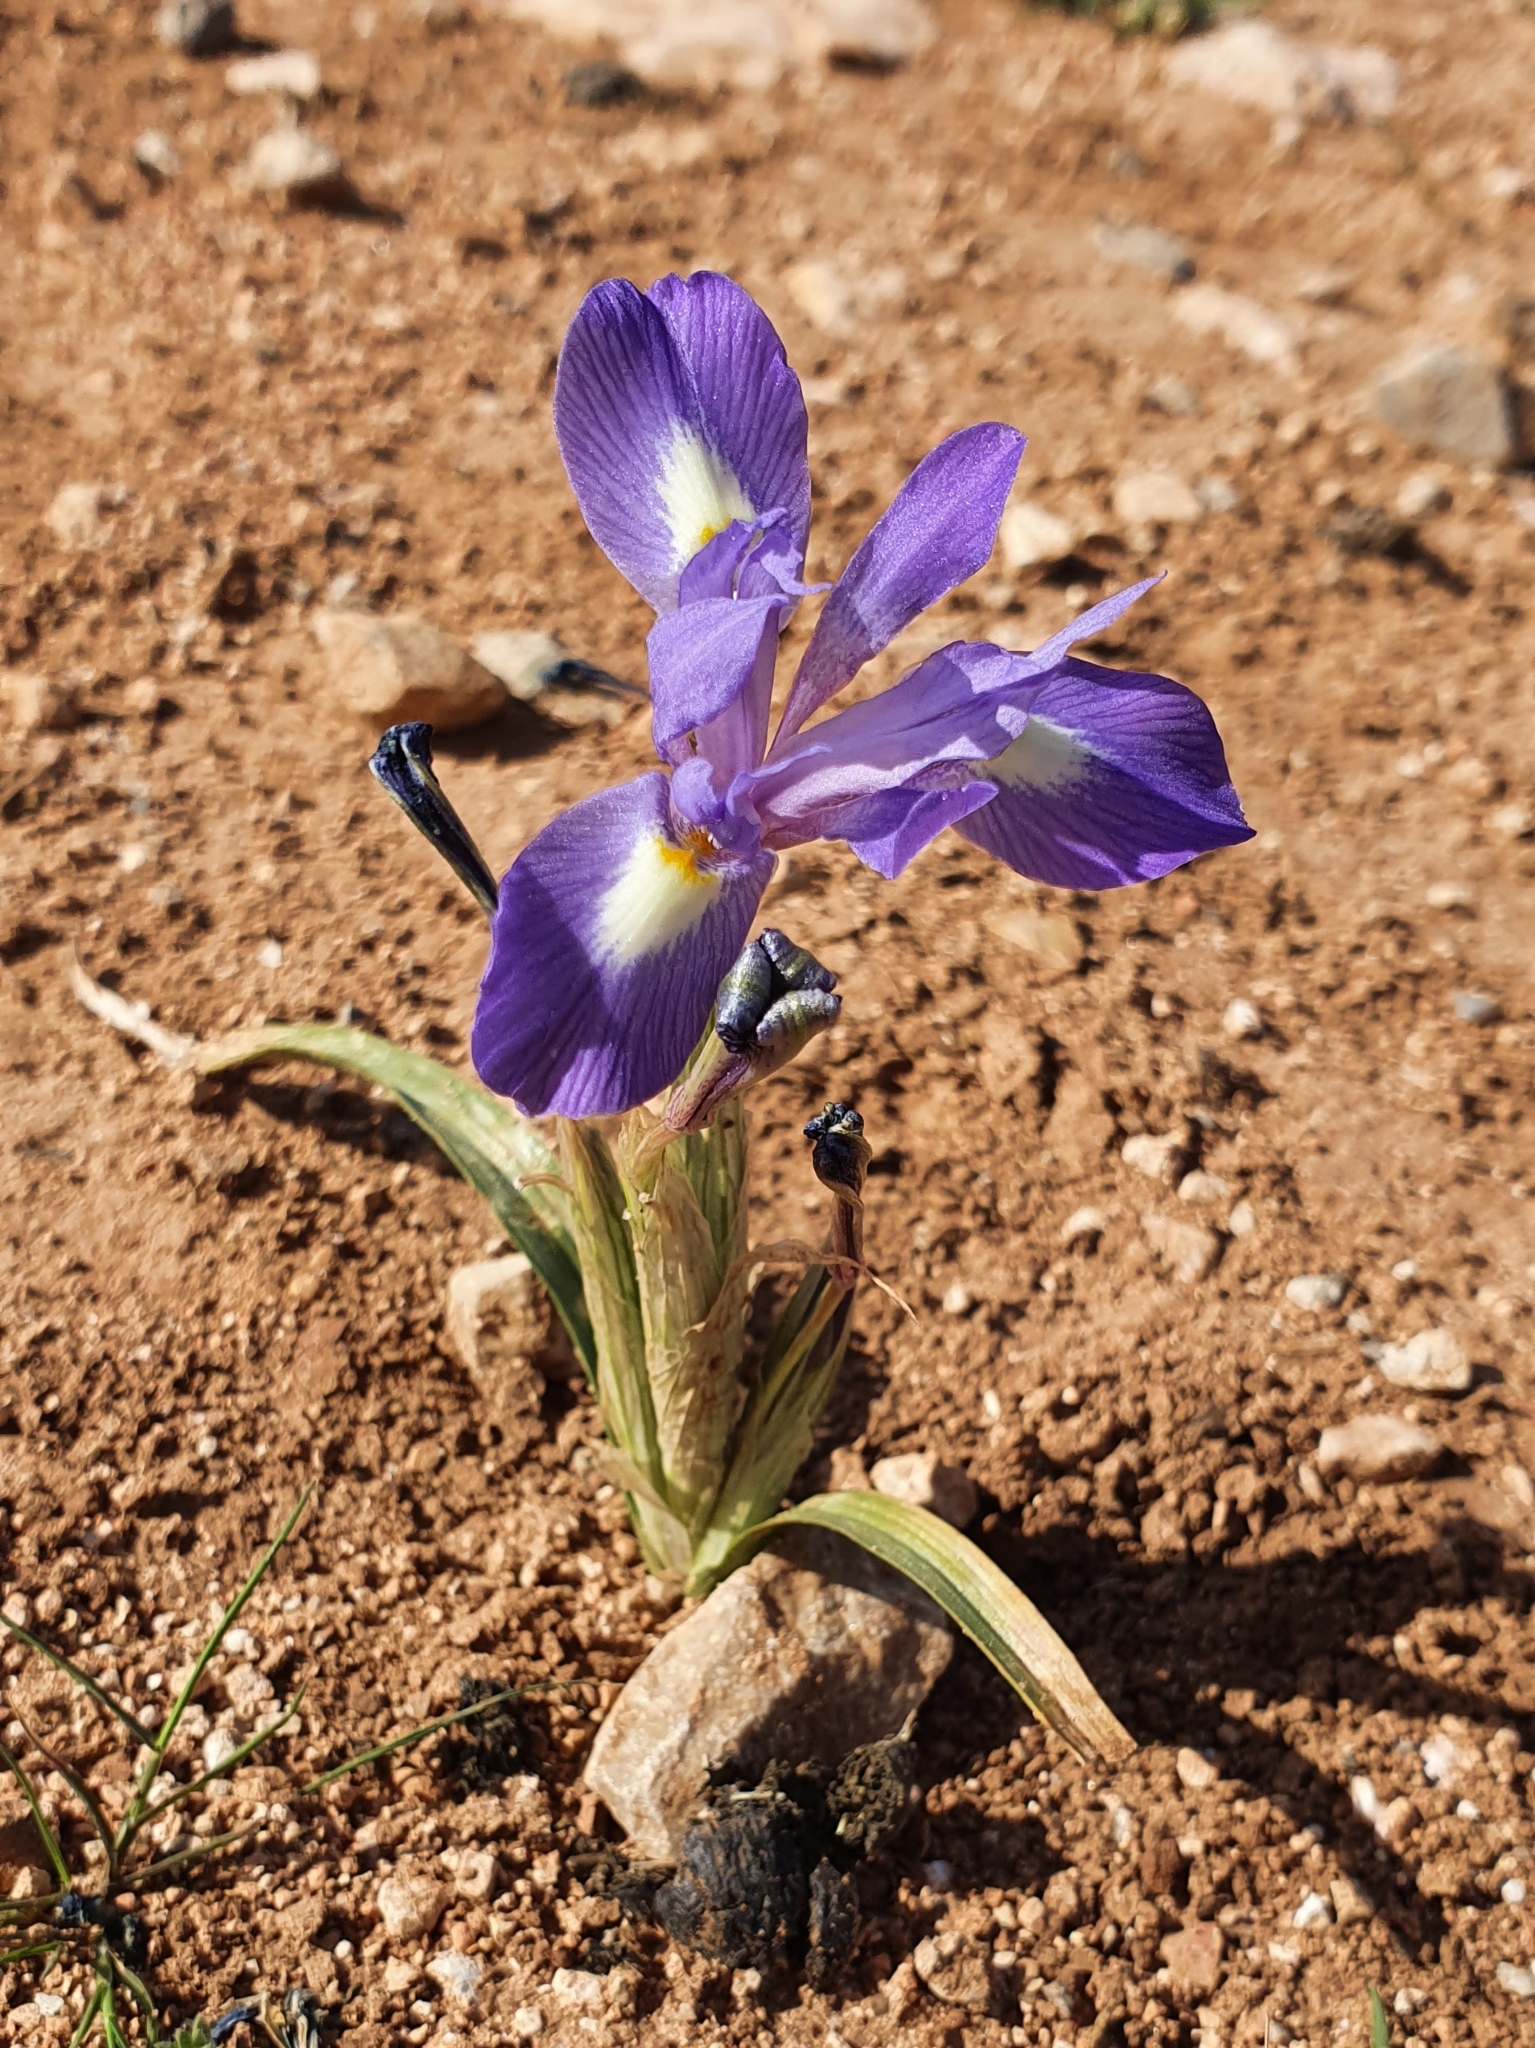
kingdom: Plantae
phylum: Tracheophyta
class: Liliopsida
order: Asparagales
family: Iridaceae
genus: Moraea
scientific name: Moraea sisyrinchium
